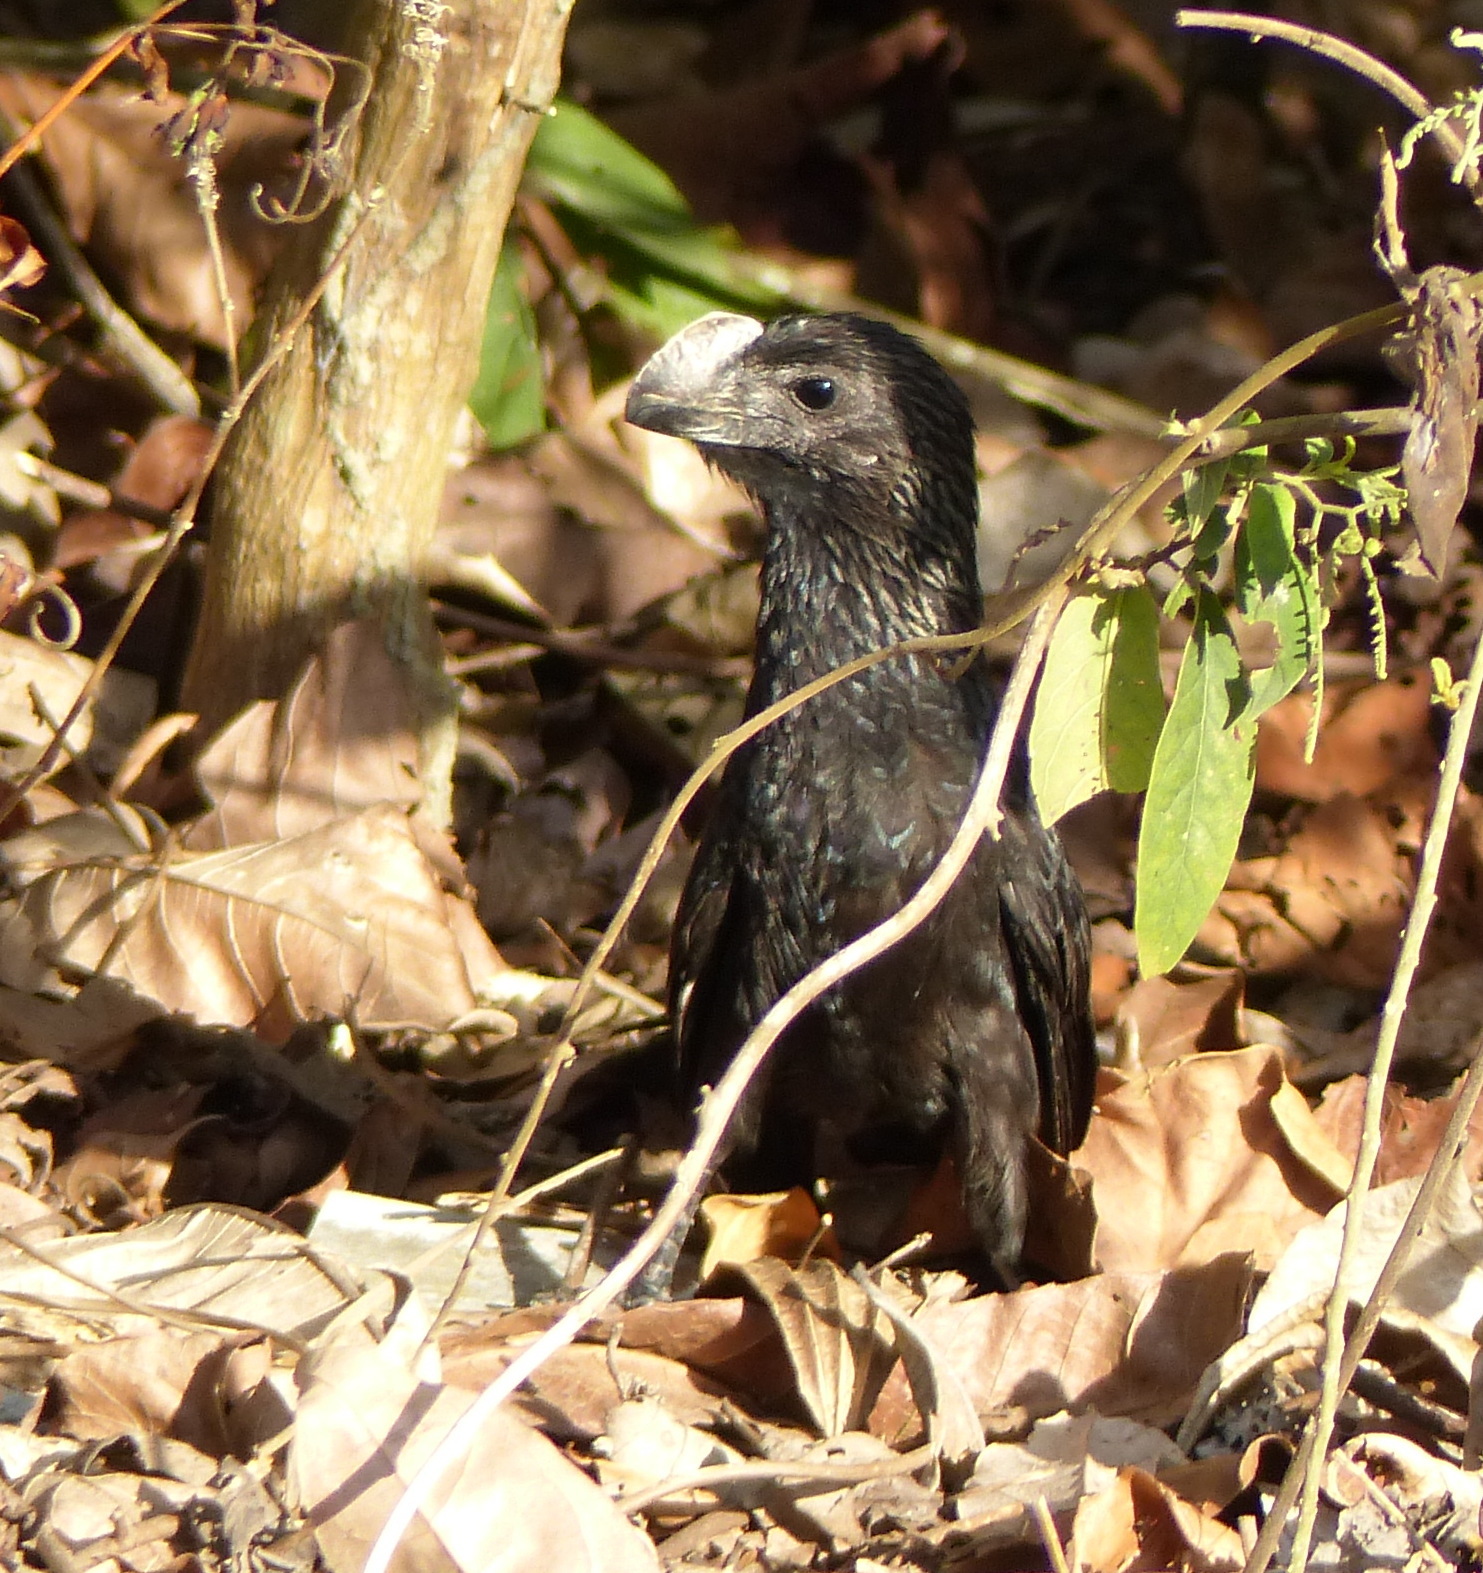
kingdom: Animalia
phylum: Chordata
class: Aves
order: Cuculiformes
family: Cuculidae
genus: Crotophaga
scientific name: Crotophaga ani
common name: Smooth-billed ani
